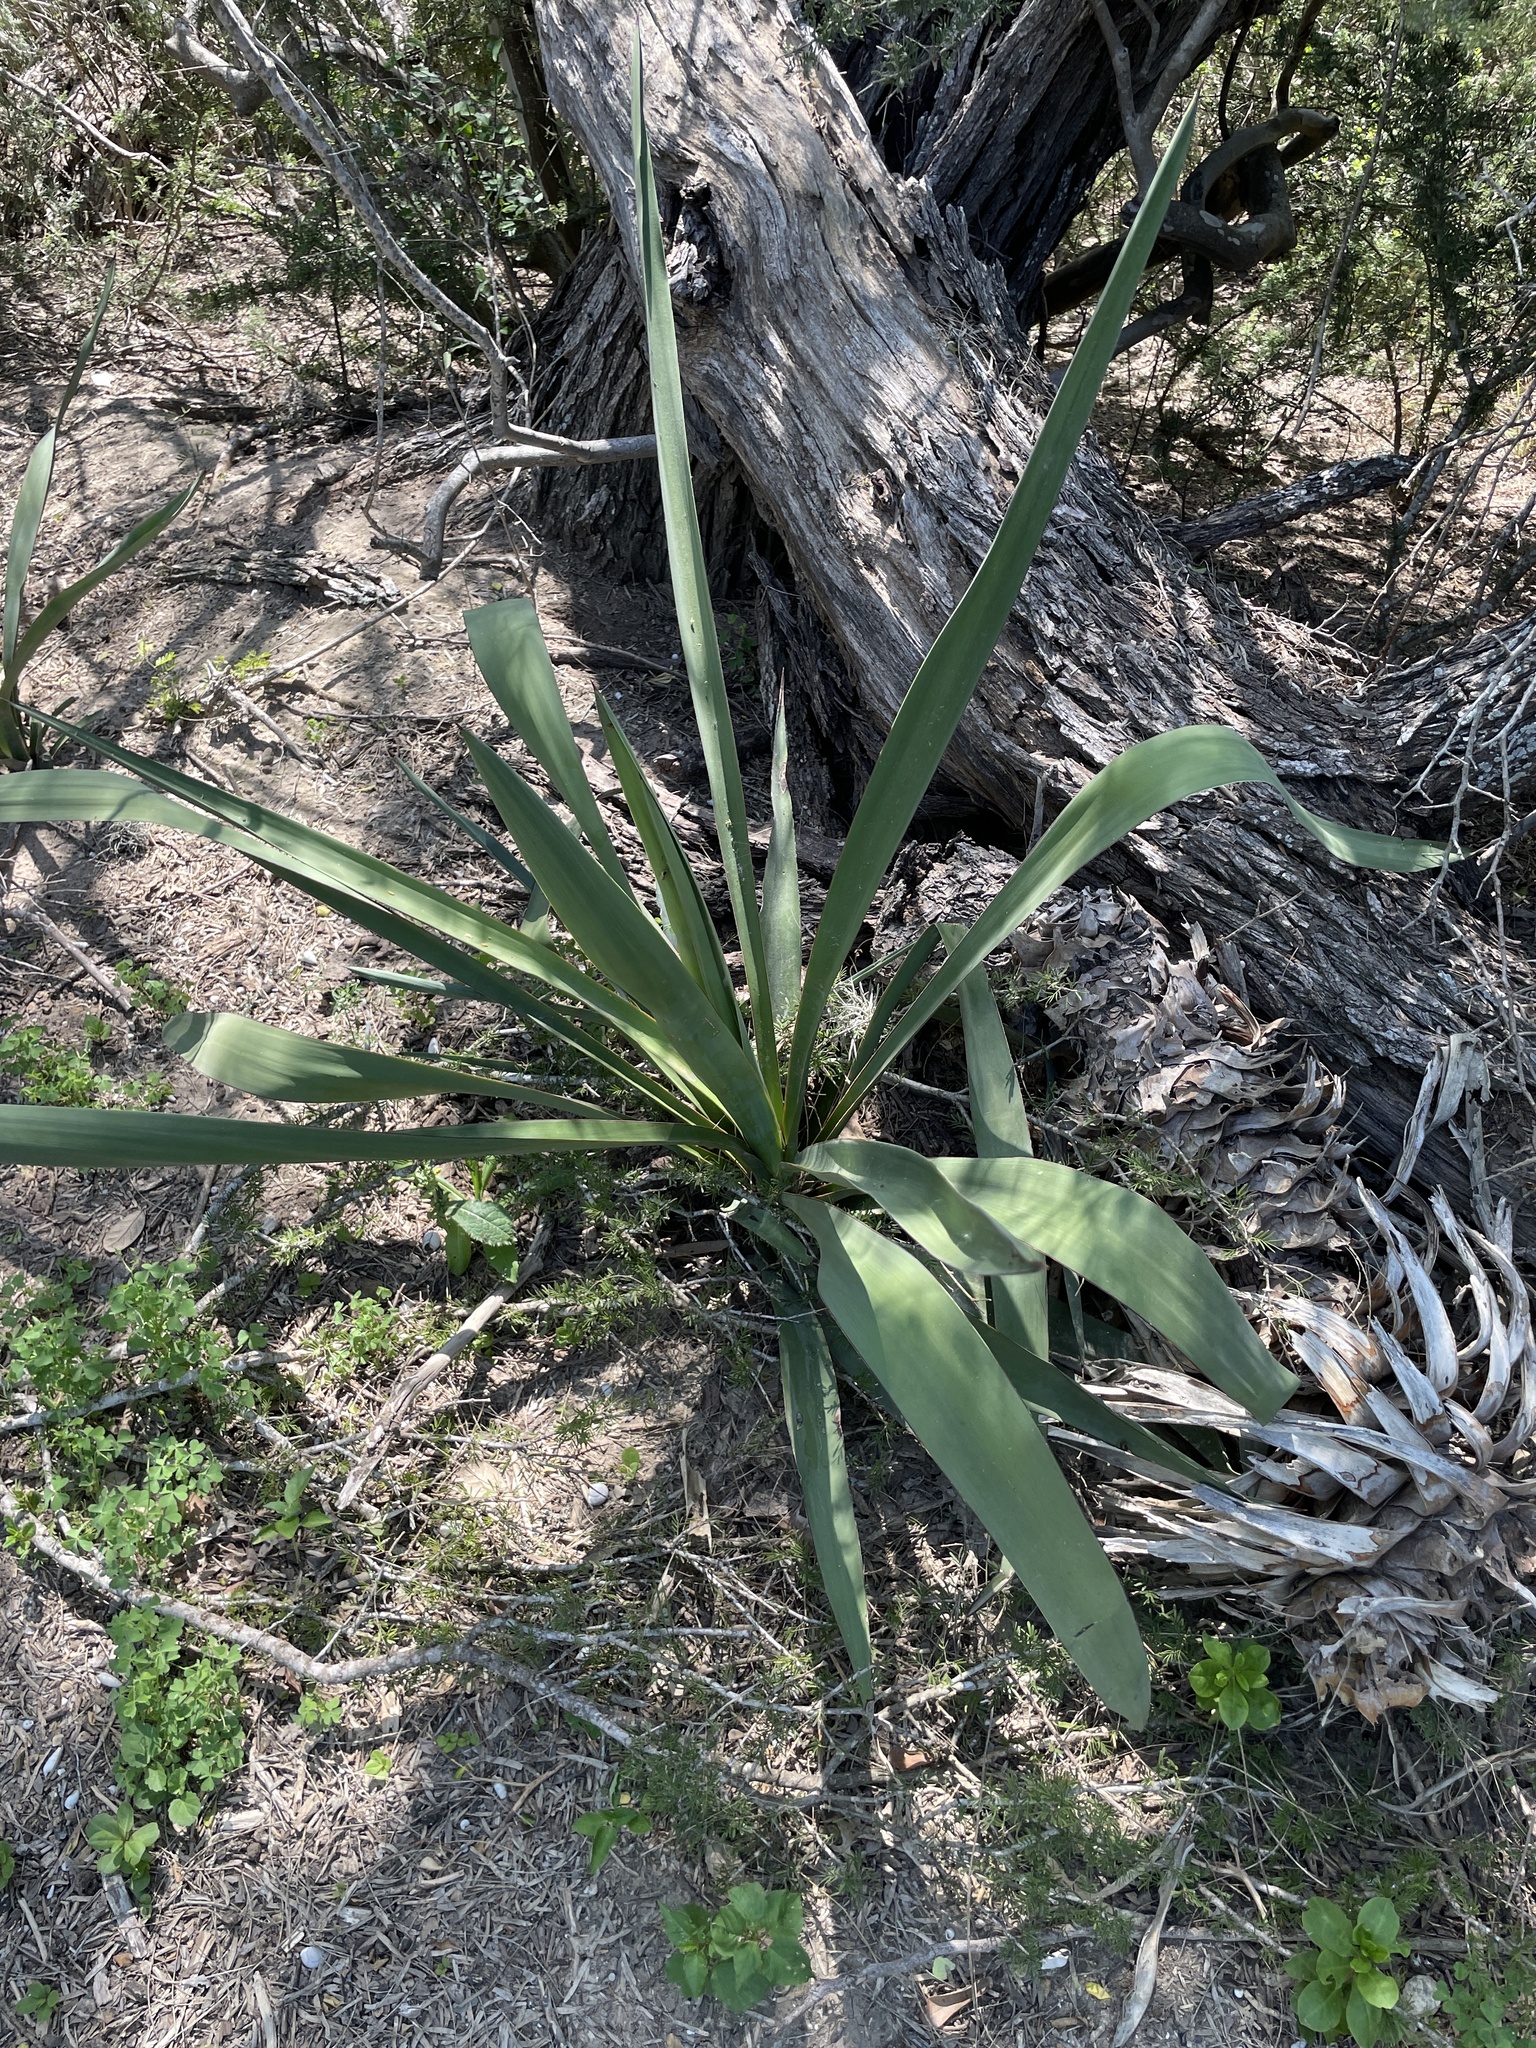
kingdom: Plantae
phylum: Tracheophyta
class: Liliopsida
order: Asparagales
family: Asparagaceae
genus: Yucca
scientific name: Yucca treculiana
